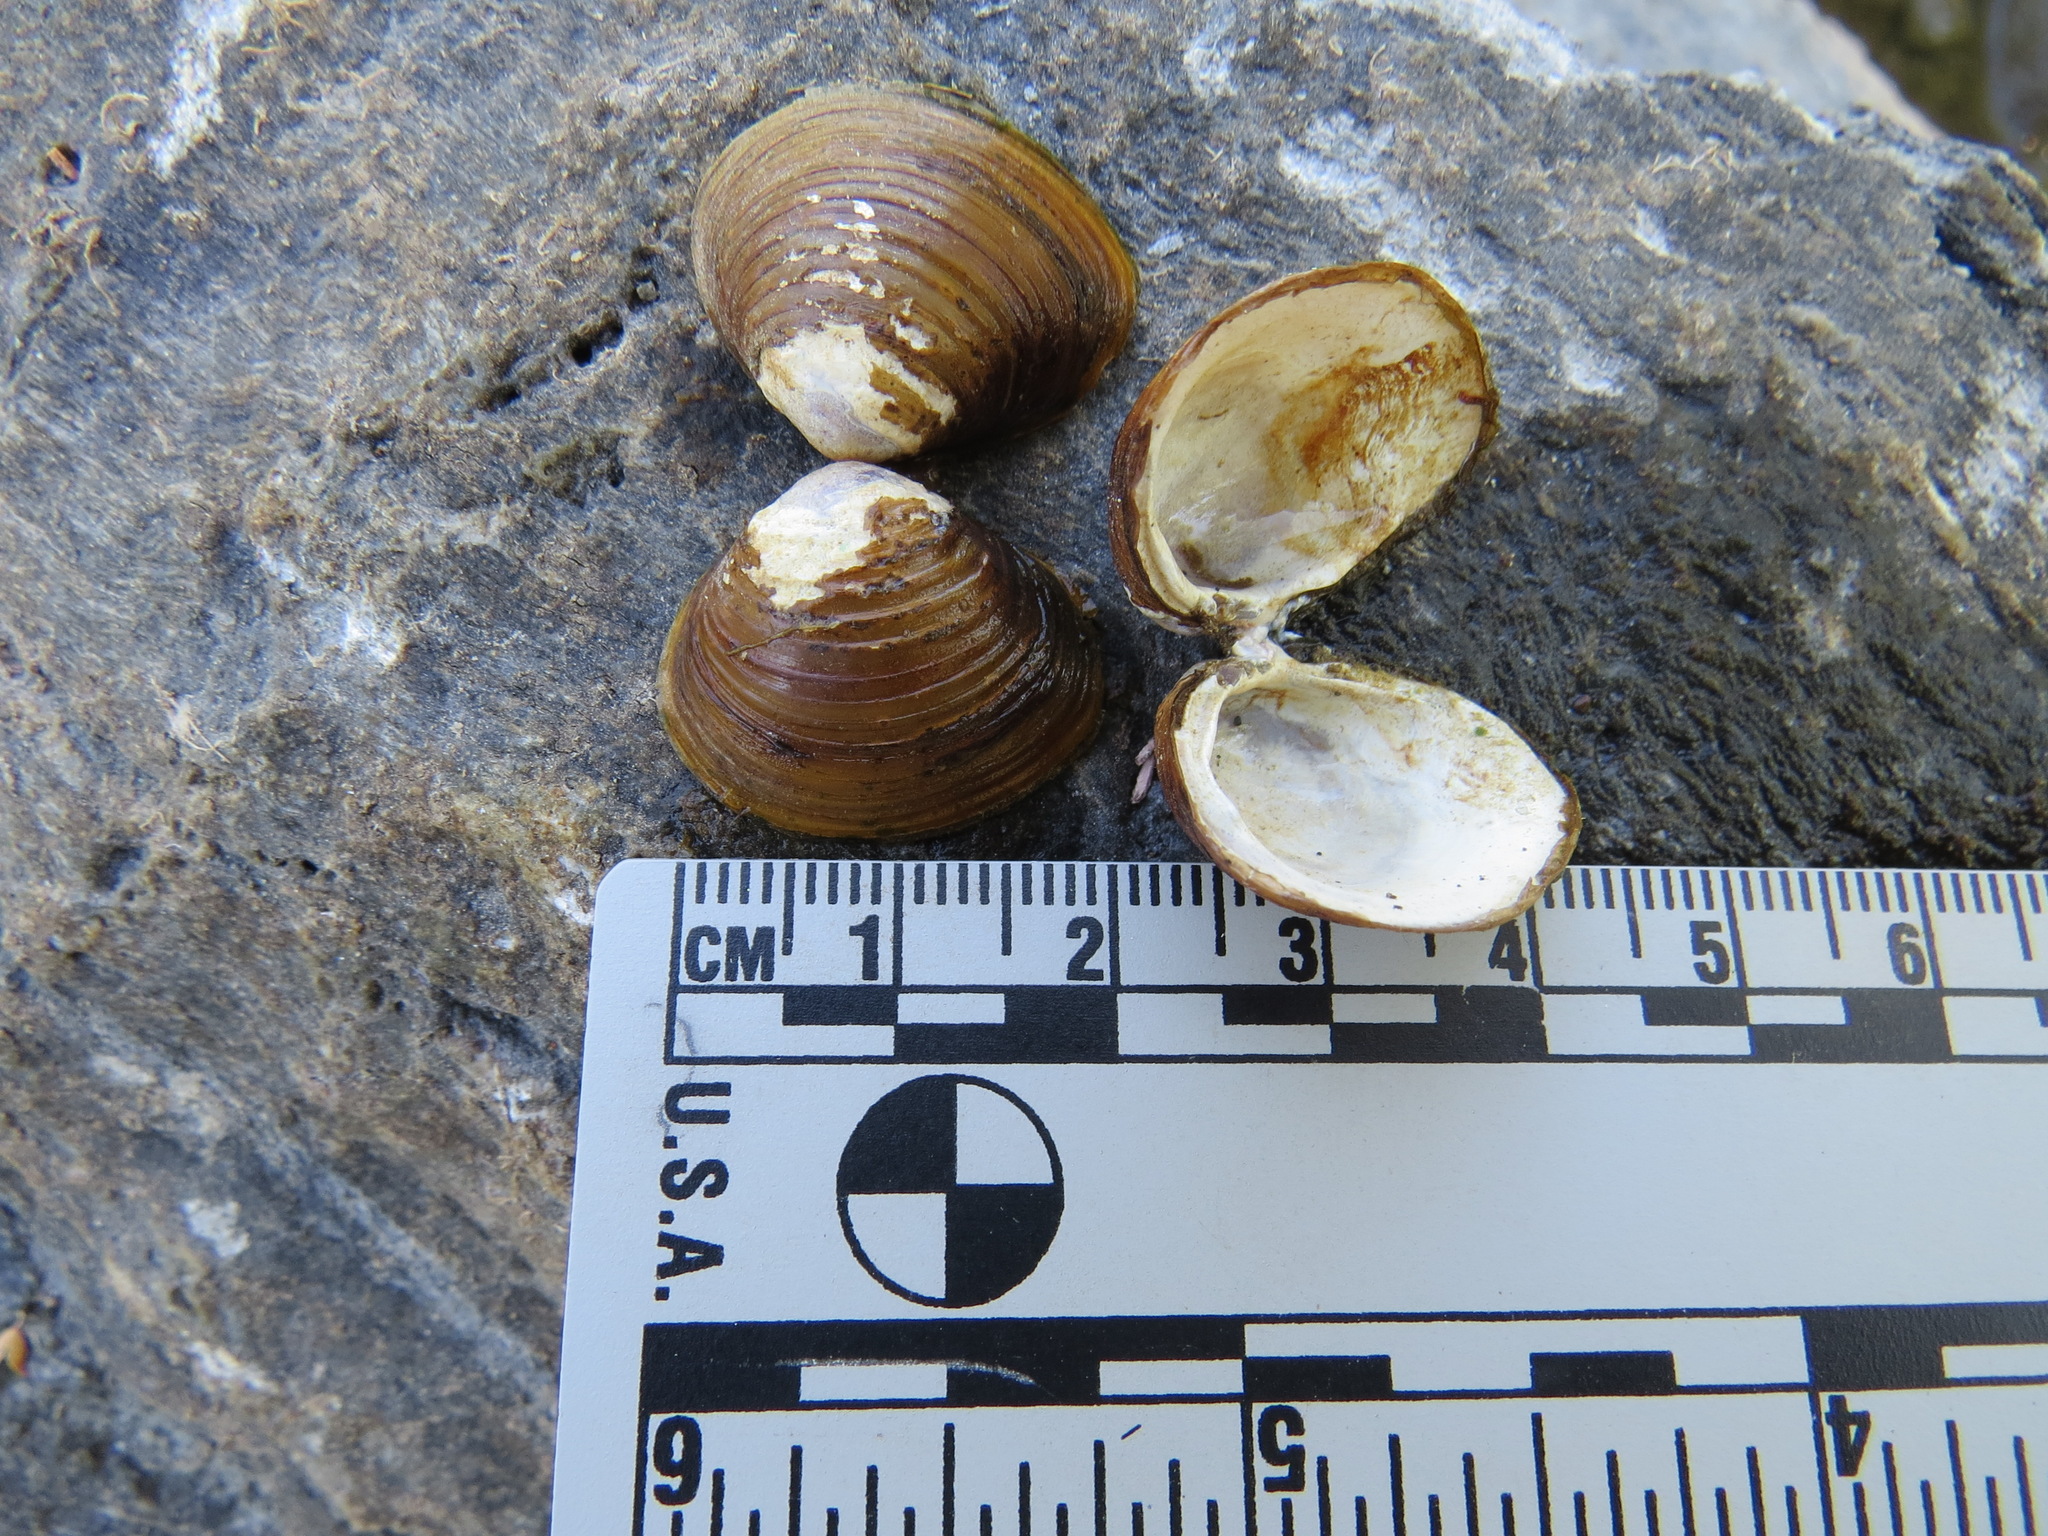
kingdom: Animalia
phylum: Mollusca
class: Bivalvia
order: Venerida
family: Cyrenidae
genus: Corbicula
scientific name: Corbicula fluminea
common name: Asian clam
